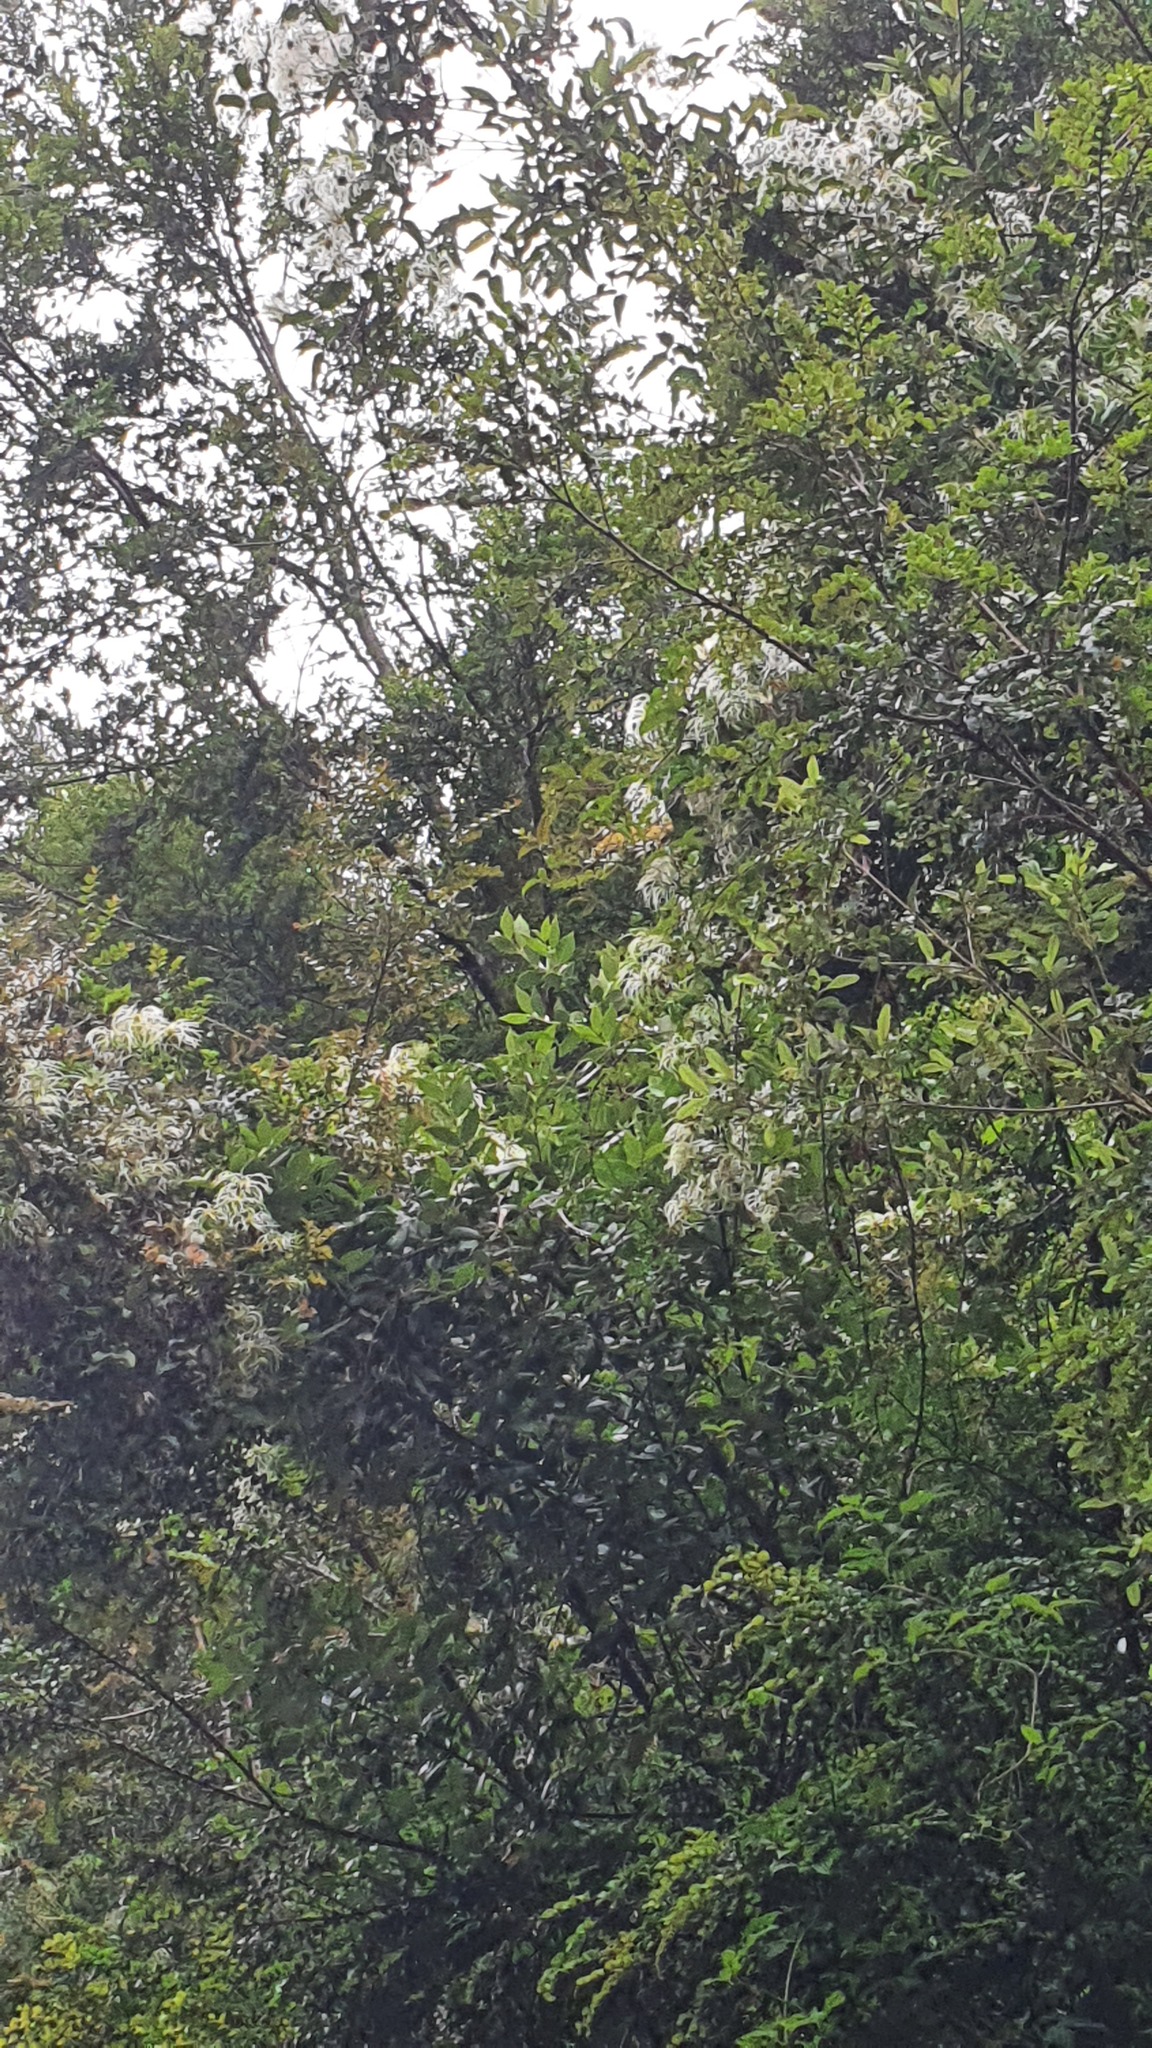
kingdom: Plantae
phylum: Tracheophyta
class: Magnoliopsida
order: Fagales
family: Nothofagaceae
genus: Nothofagus
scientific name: Nothofagus cunninghamii
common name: Myrtle beech
